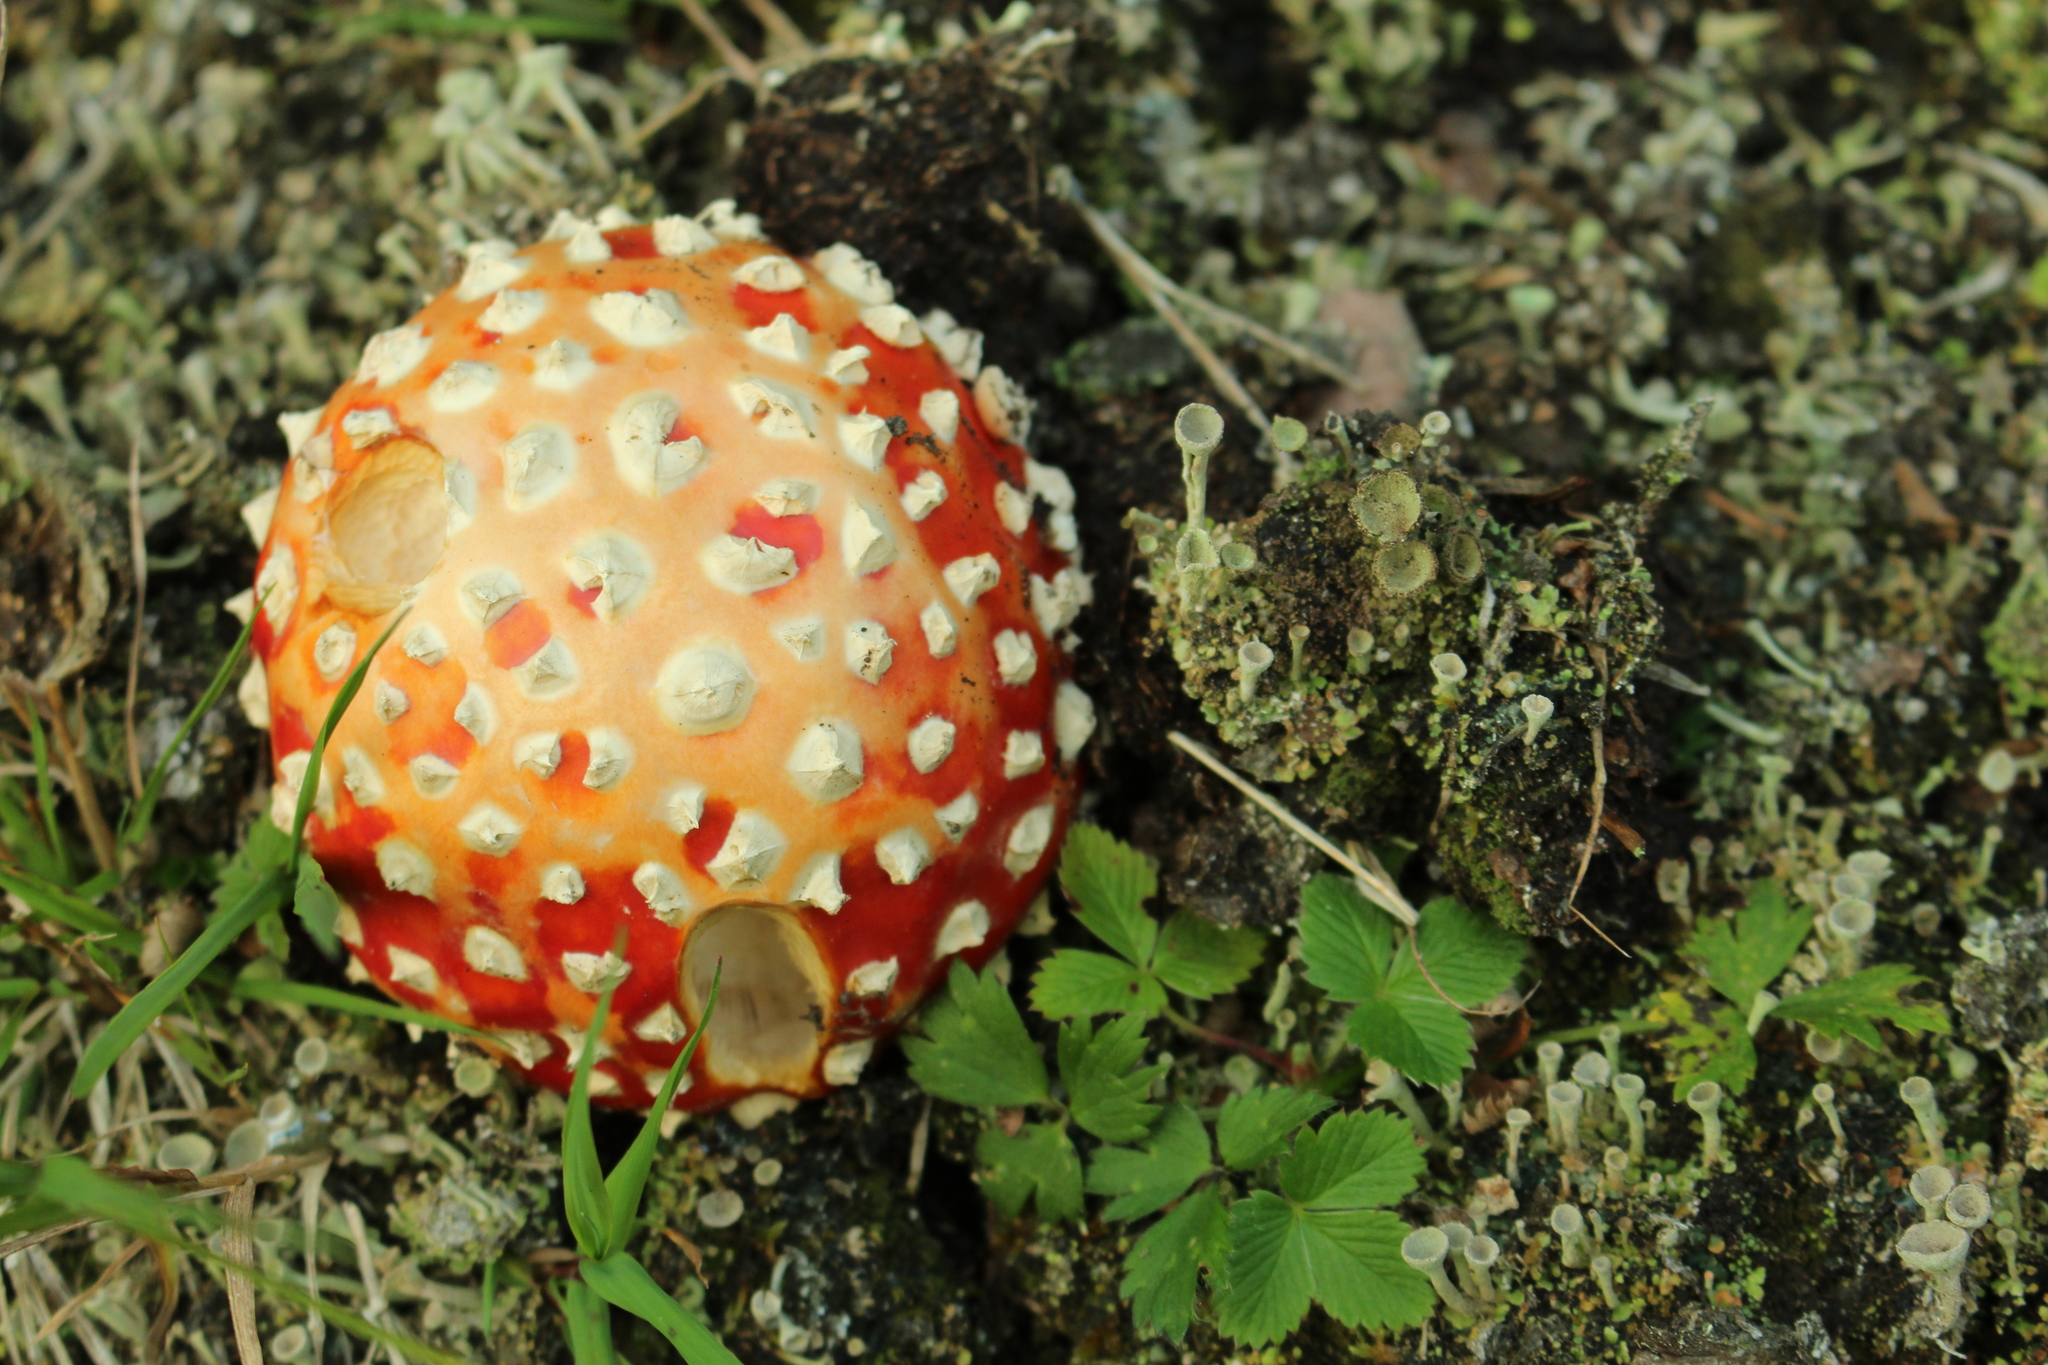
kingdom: Fungi
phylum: Basidiomycota
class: Agaricomycetes
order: Agaricales
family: Amanitaceae
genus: Amanita
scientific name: Amanita muscaria
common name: Fly agaric
